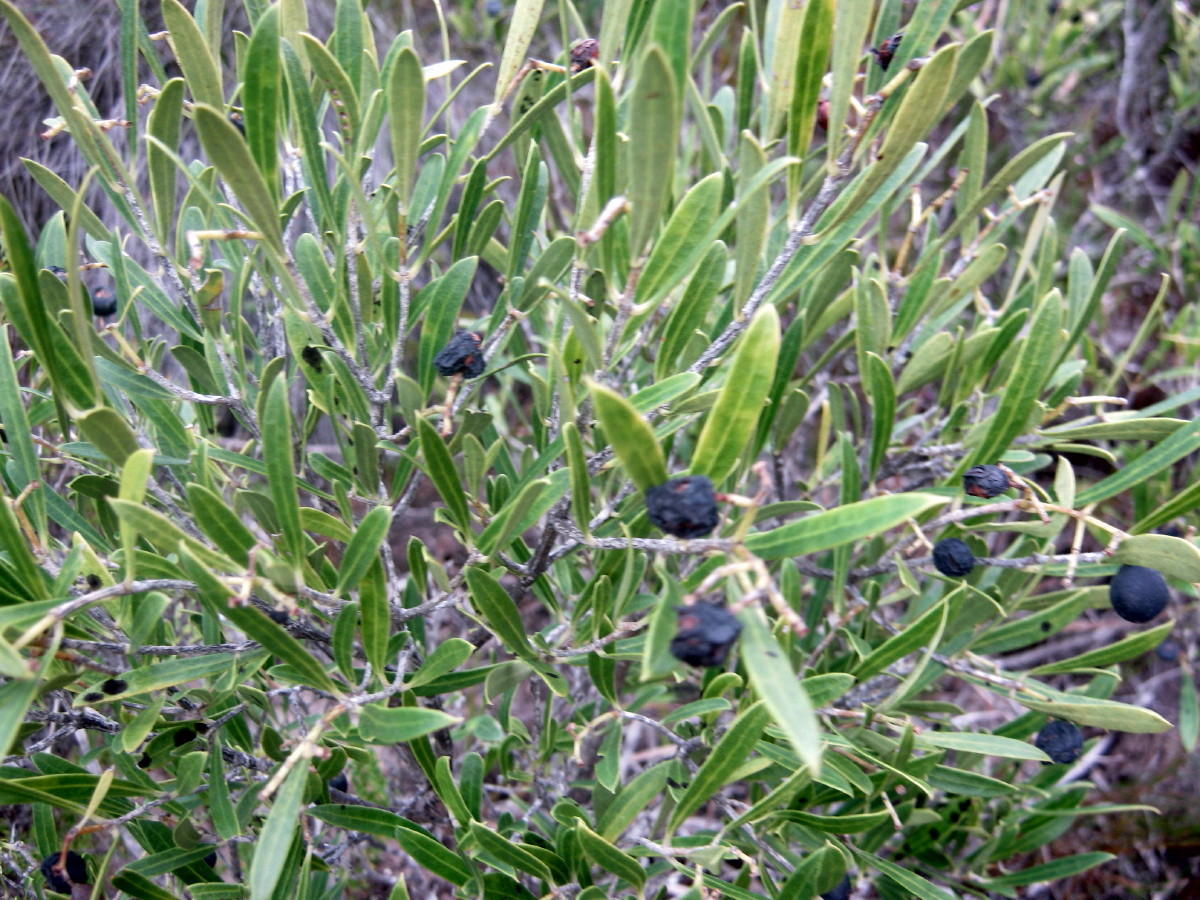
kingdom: Plantae
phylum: Tracheophyta
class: Magnoliopsida
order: Lamiales
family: Oleaceae
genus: Olea
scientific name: Olea exasperata
